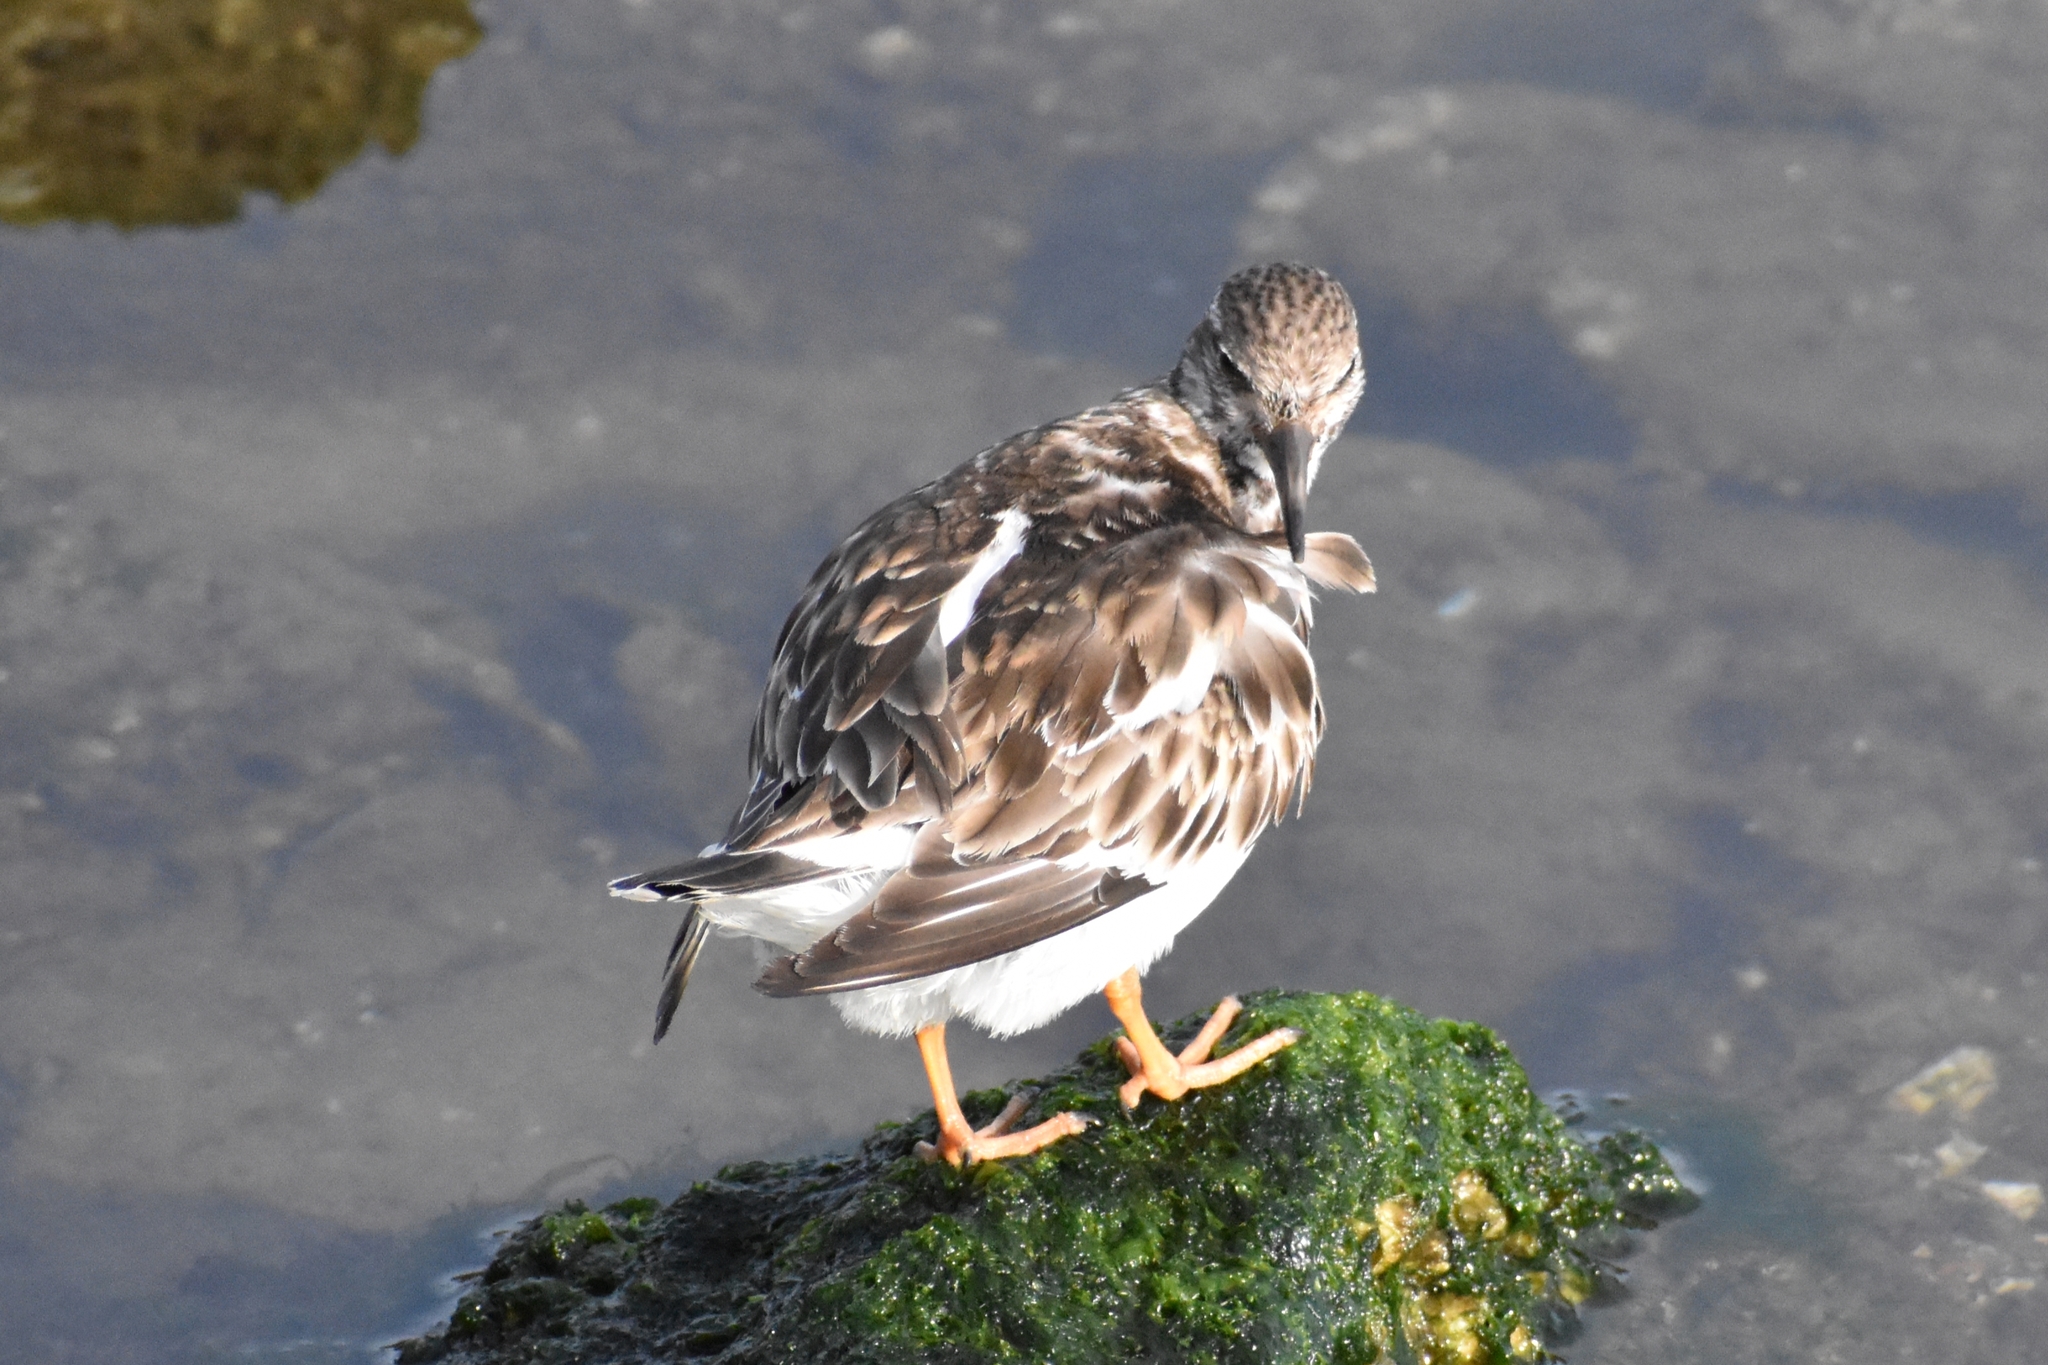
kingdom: Animalia
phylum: Chordata
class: Aves
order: Charadriiformes
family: Scolopacidae
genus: Arenaria
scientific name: Arenaria interpres
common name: Ruddy turnstone
